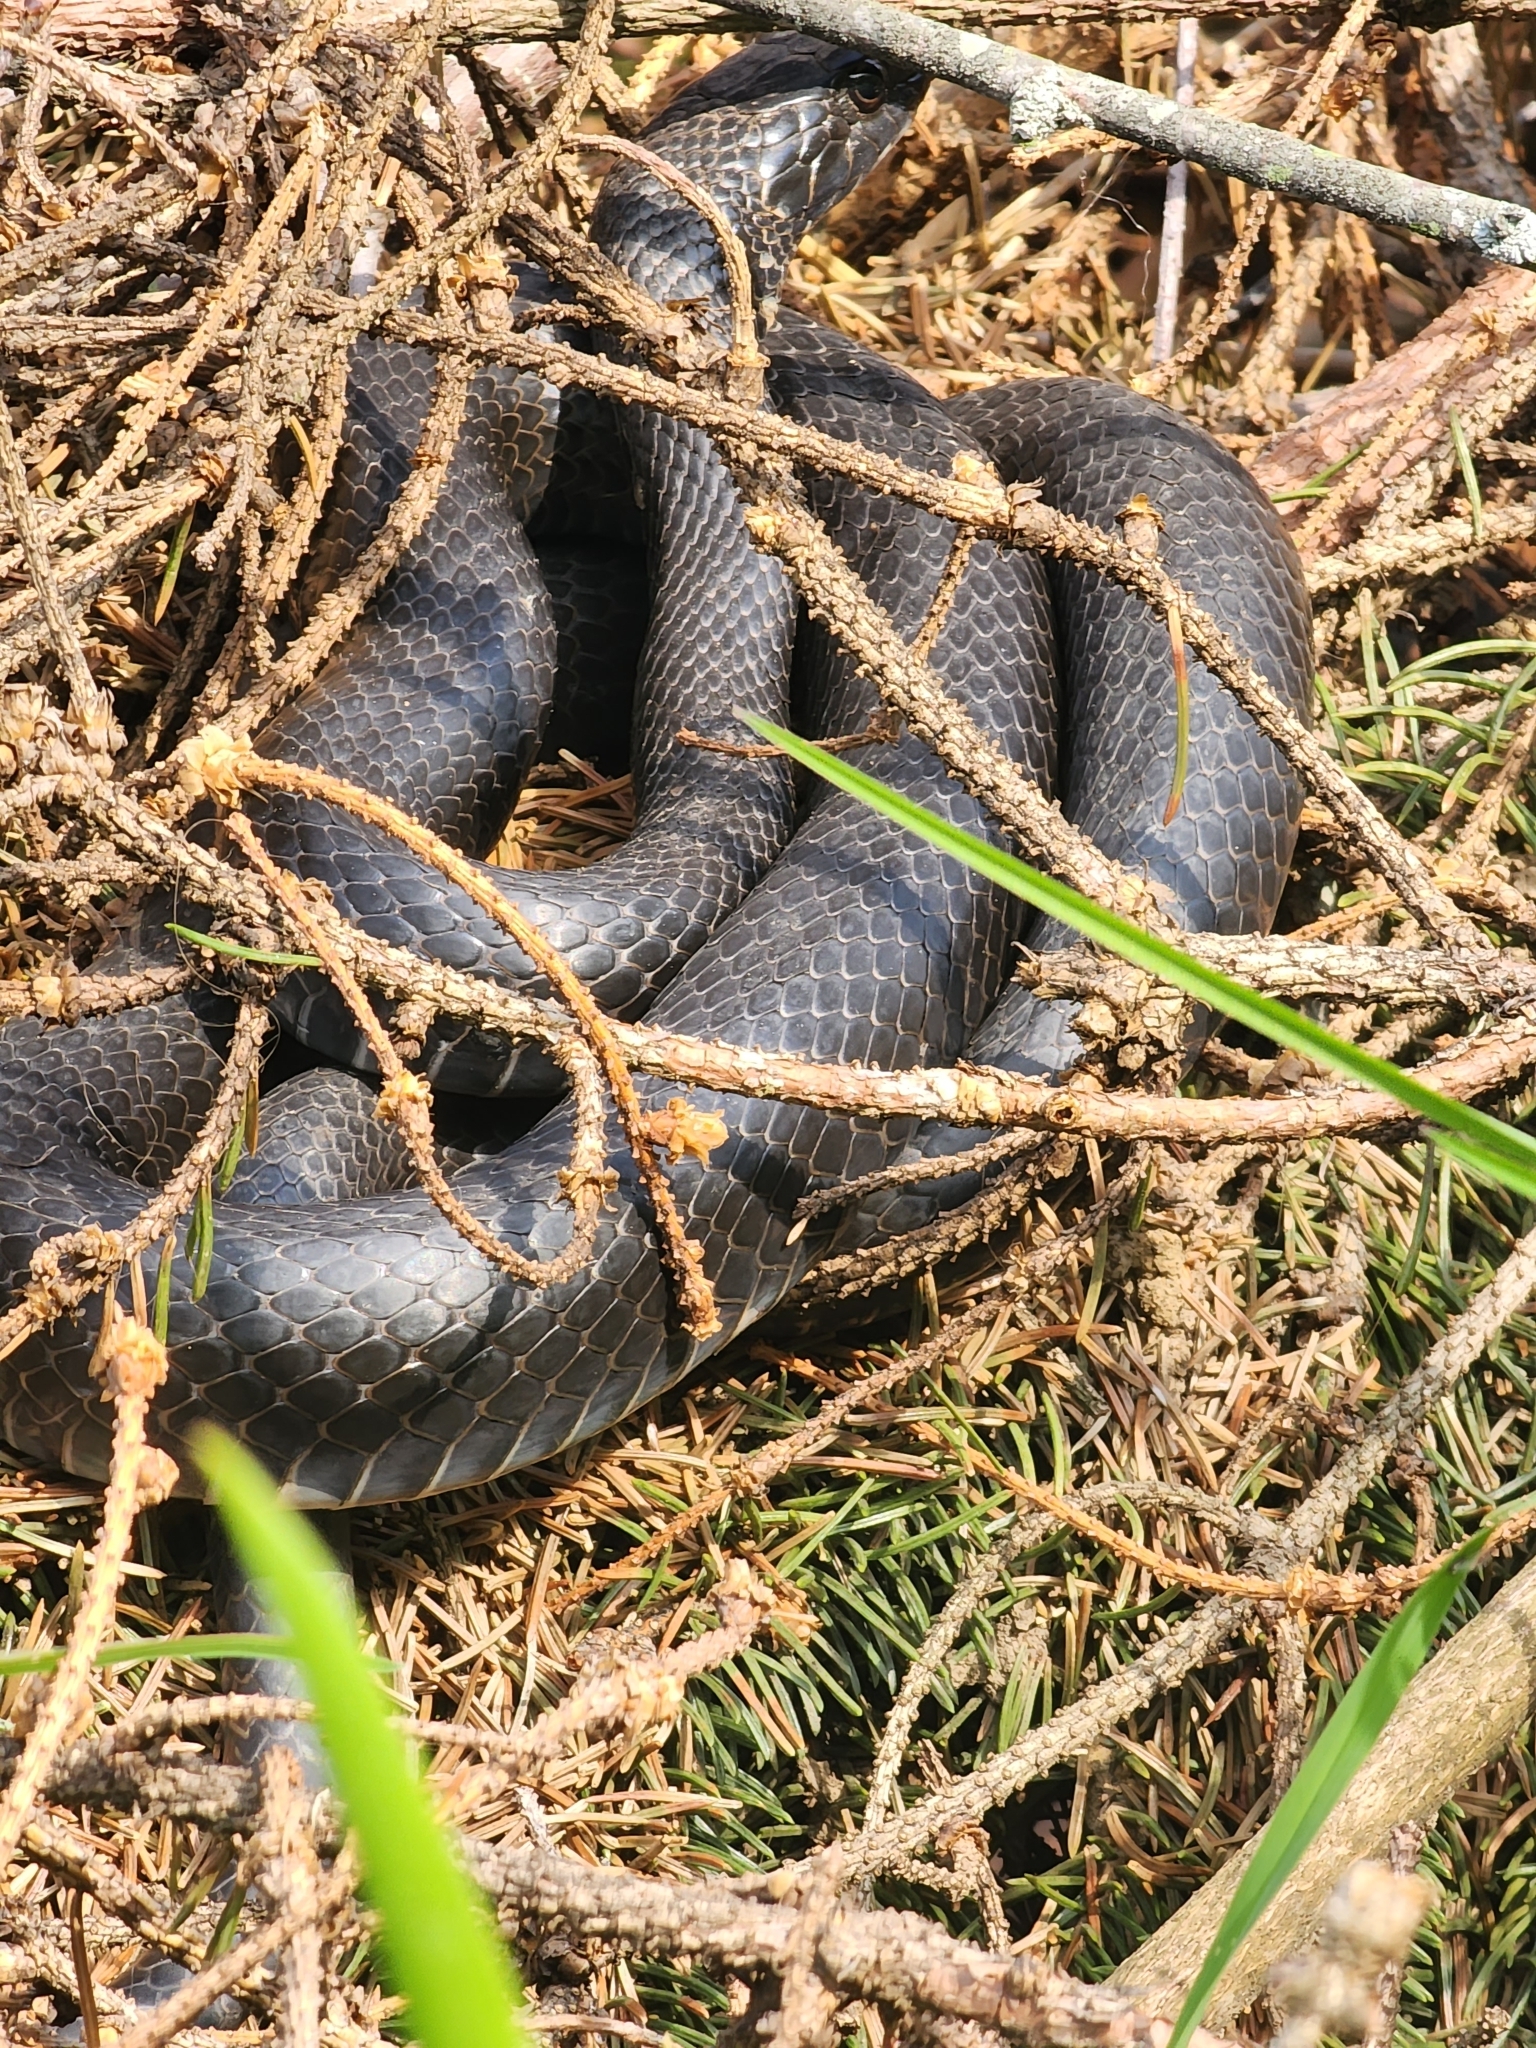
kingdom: Animalia
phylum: Chordata
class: Squamata
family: Colubridae
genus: Coluber
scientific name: Coluber constrictor
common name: Eastern racer
